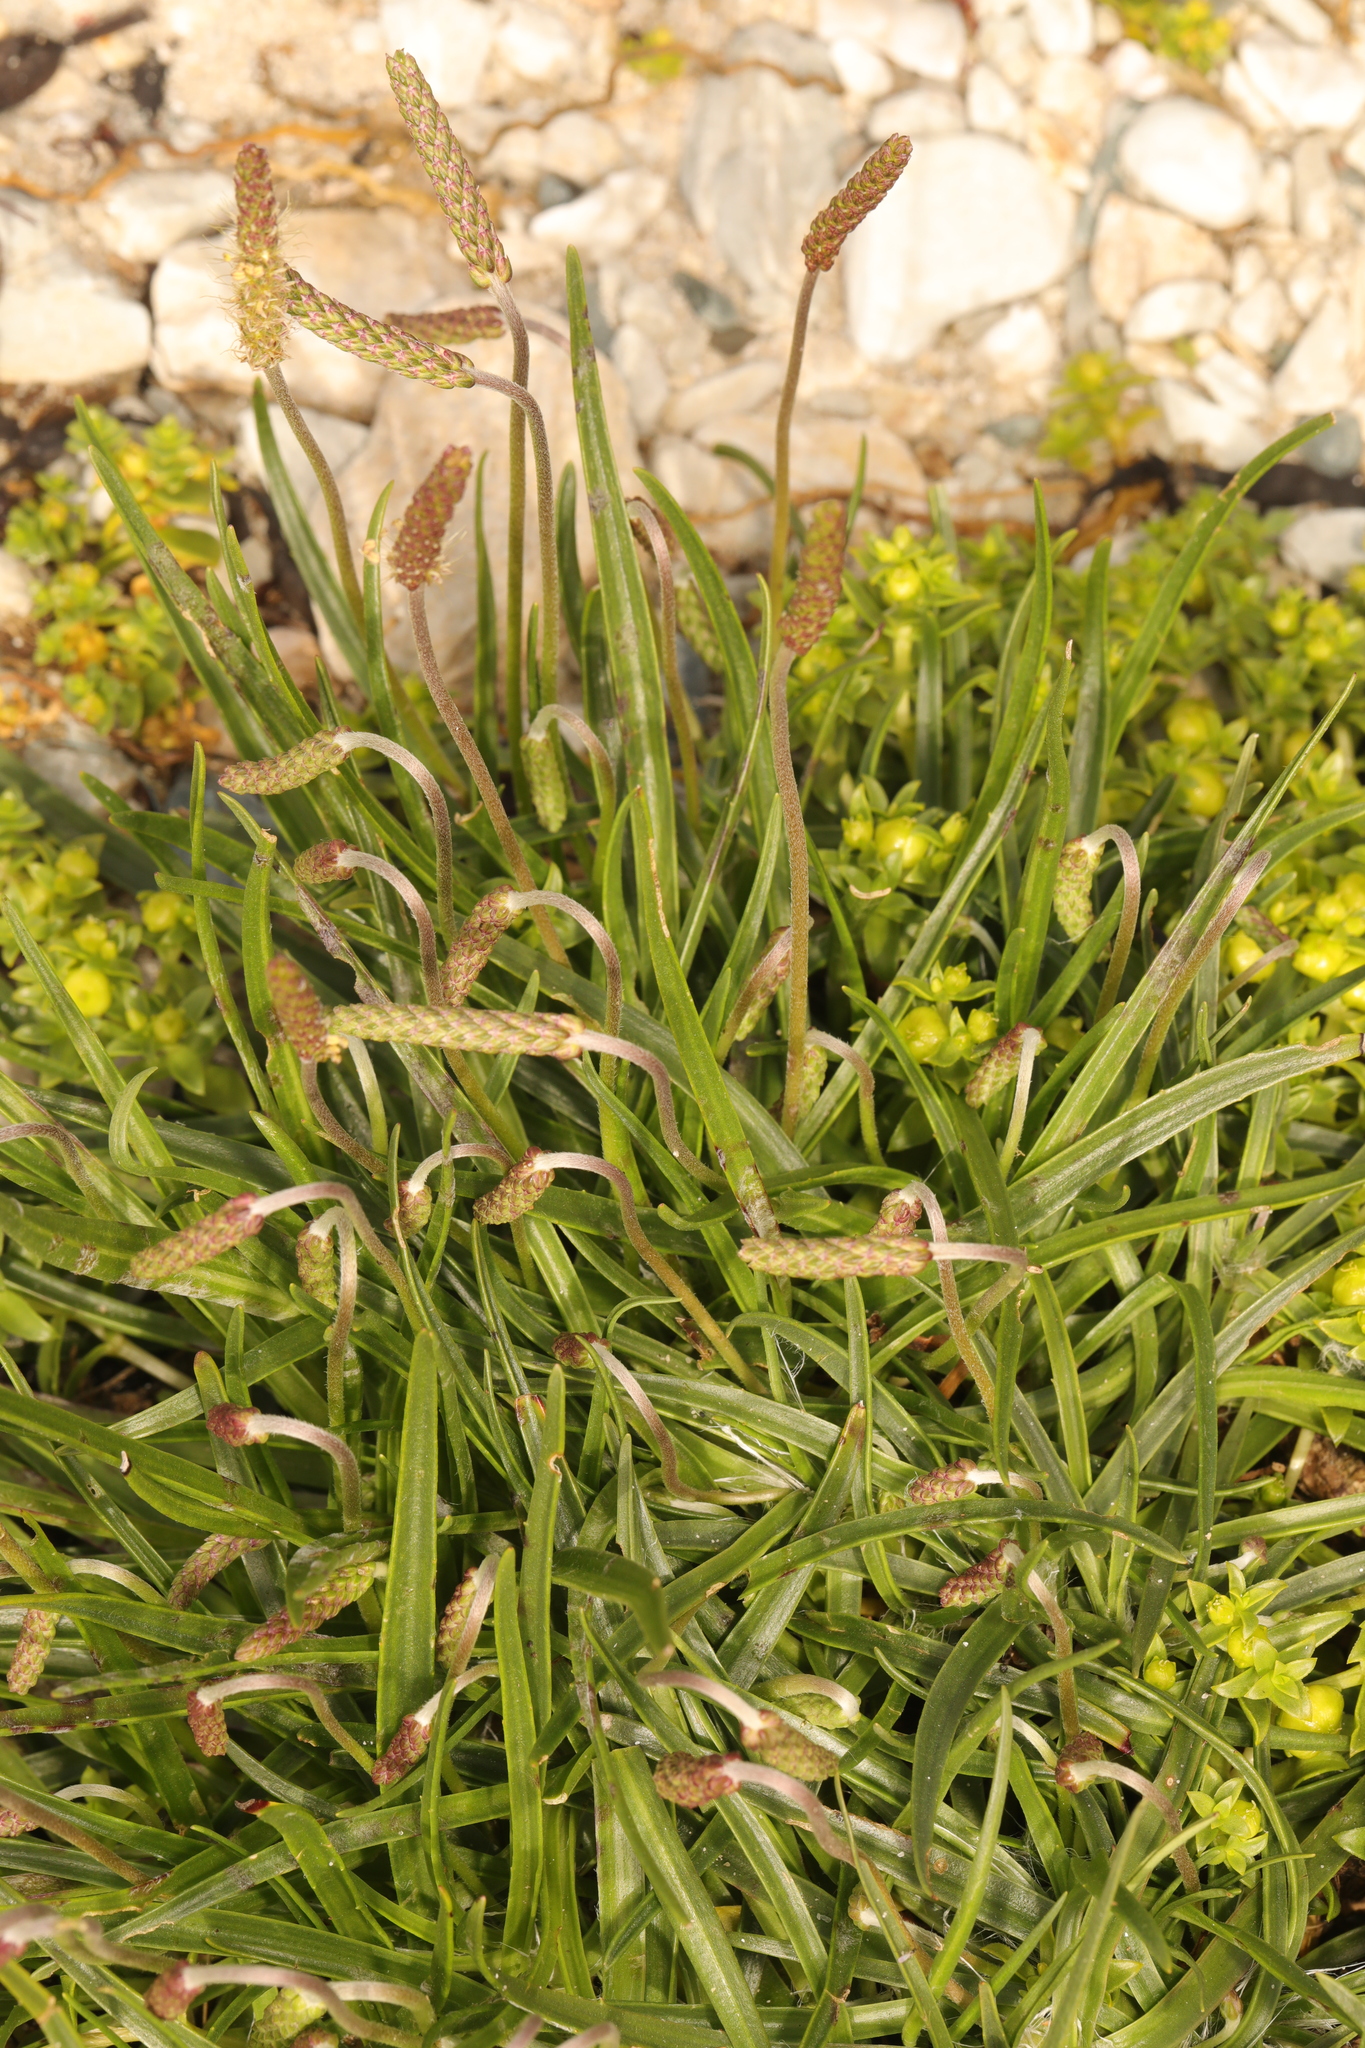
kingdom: Plantae
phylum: Tracheophyta
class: Magnoliopsida
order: Lamiales
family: Plantaginaceae
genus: Plantago
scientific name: Plantago maritima
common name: Sea plantain
